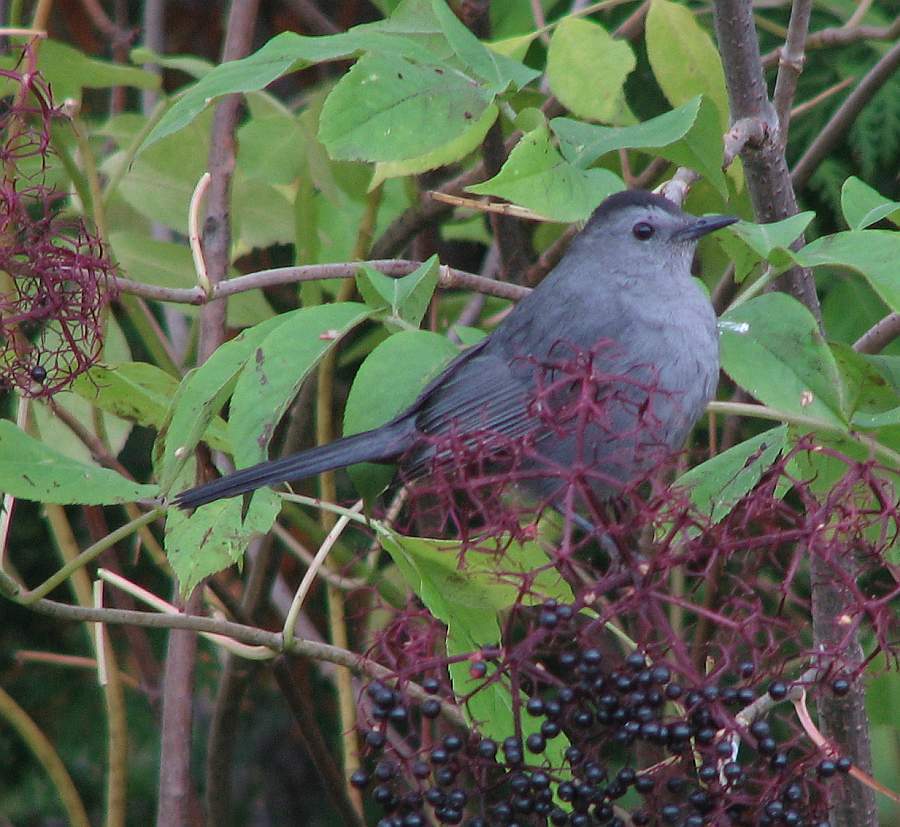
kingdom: Animalia
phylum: Chordata
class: Aves
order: Passeriformes
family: Mimidae
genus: Dumetella
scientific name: Dumetella carolinensis
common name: Gray catbird
